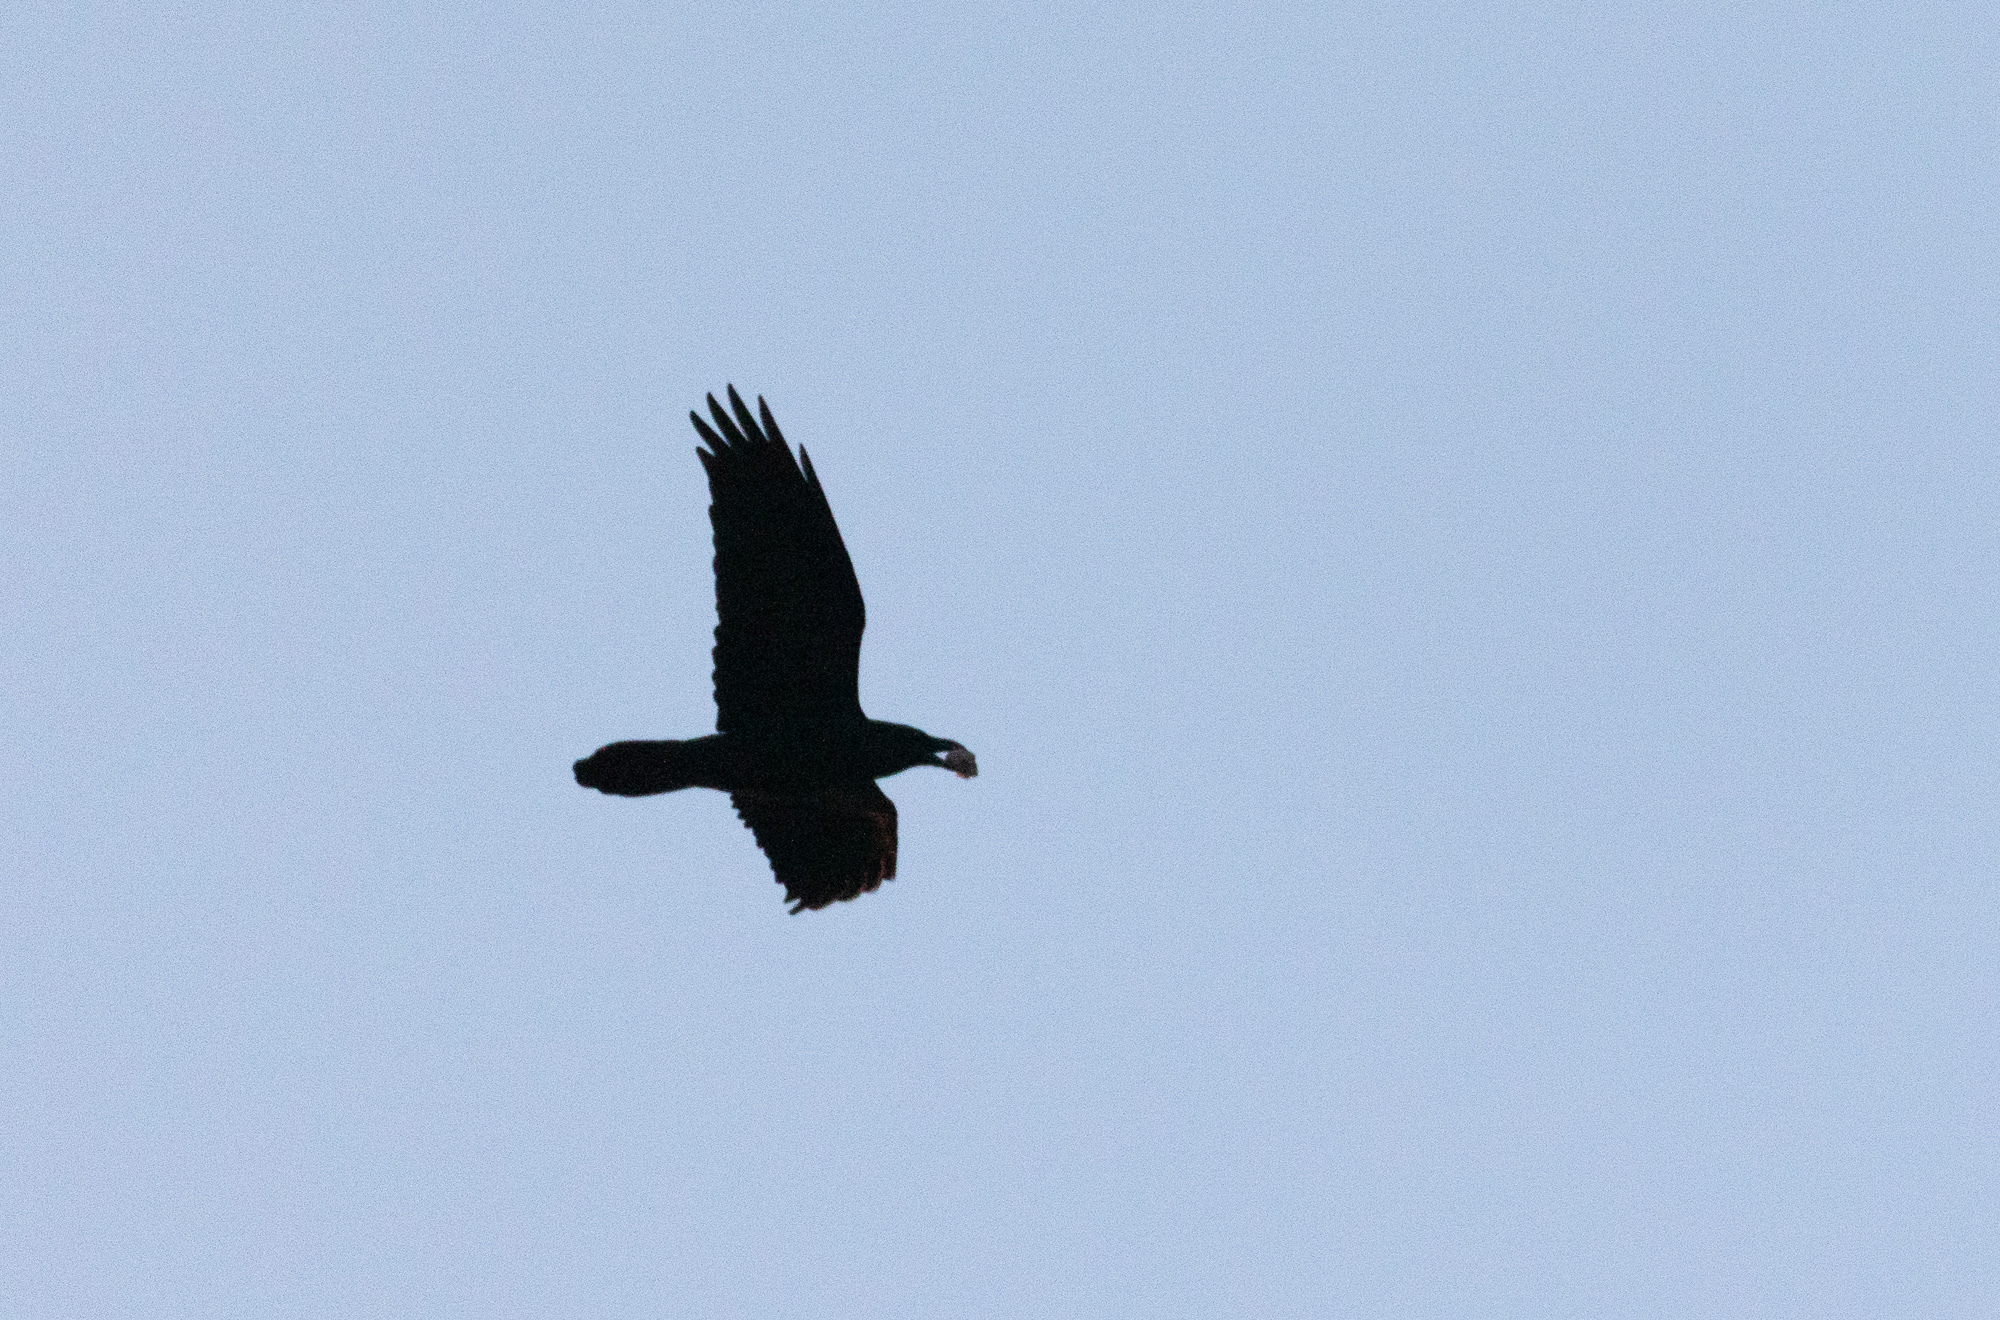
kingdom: Animalia
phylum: Chordata
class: Aves
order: Passeriformes
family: Corvidae
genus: Corvus
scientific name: Corvus corax
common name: Common raven
